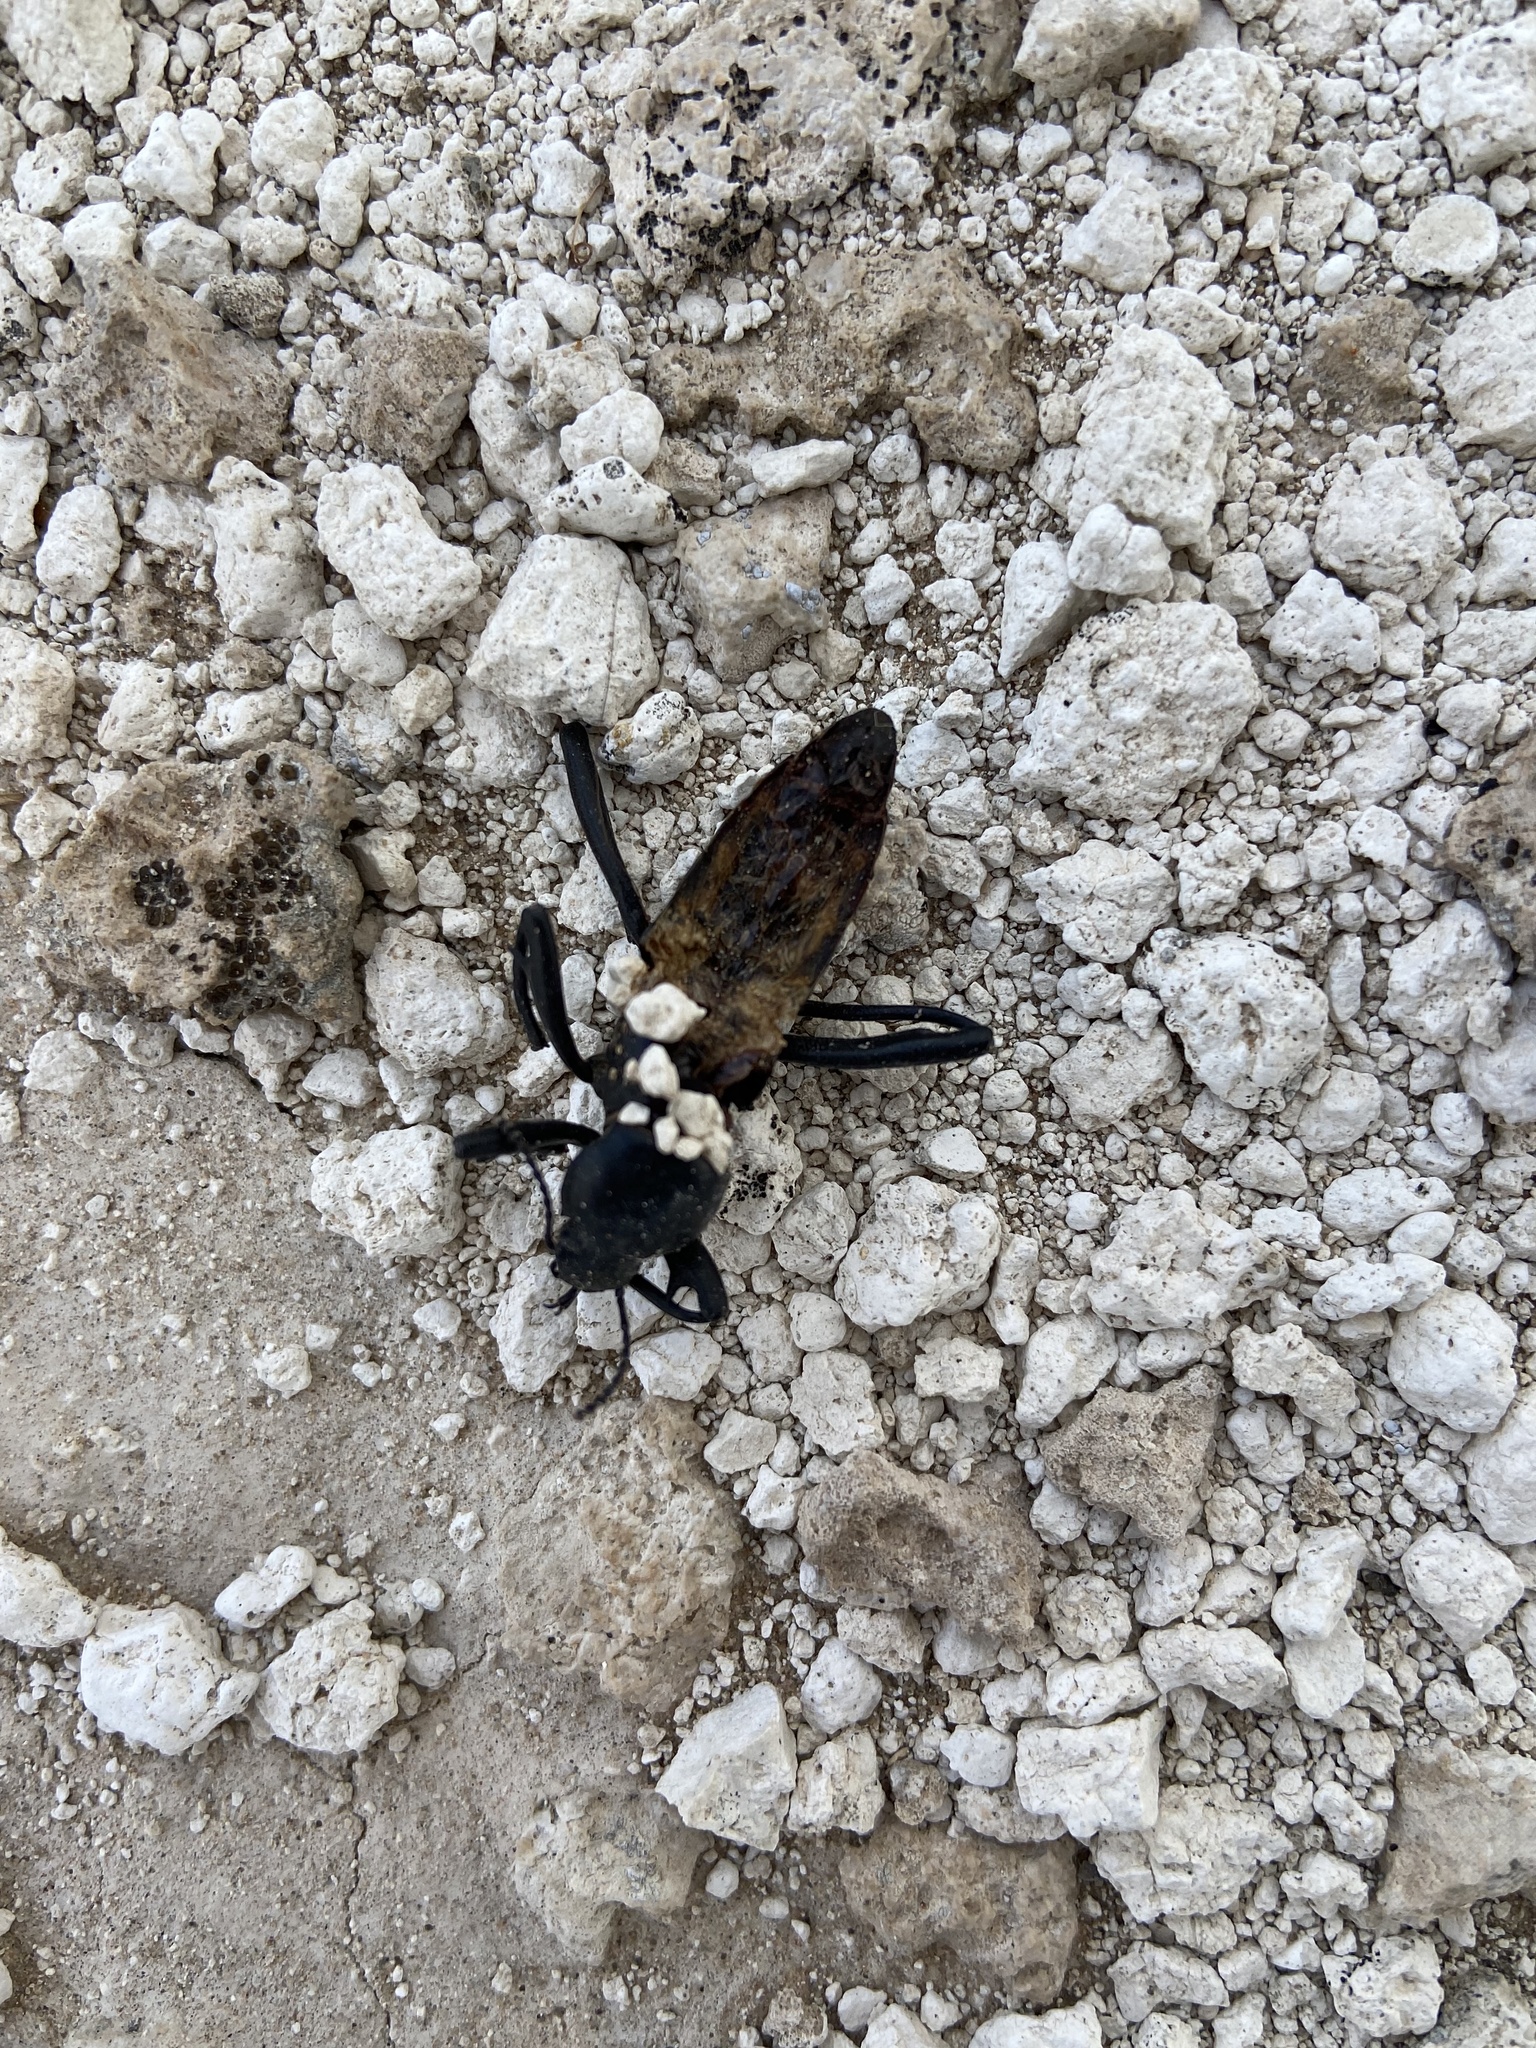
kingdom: Animalia
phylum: Arthropoda
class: Insecta
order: Coleoptera
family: Tenebrionidae
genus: Eleodes
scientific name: Eleodes armata
